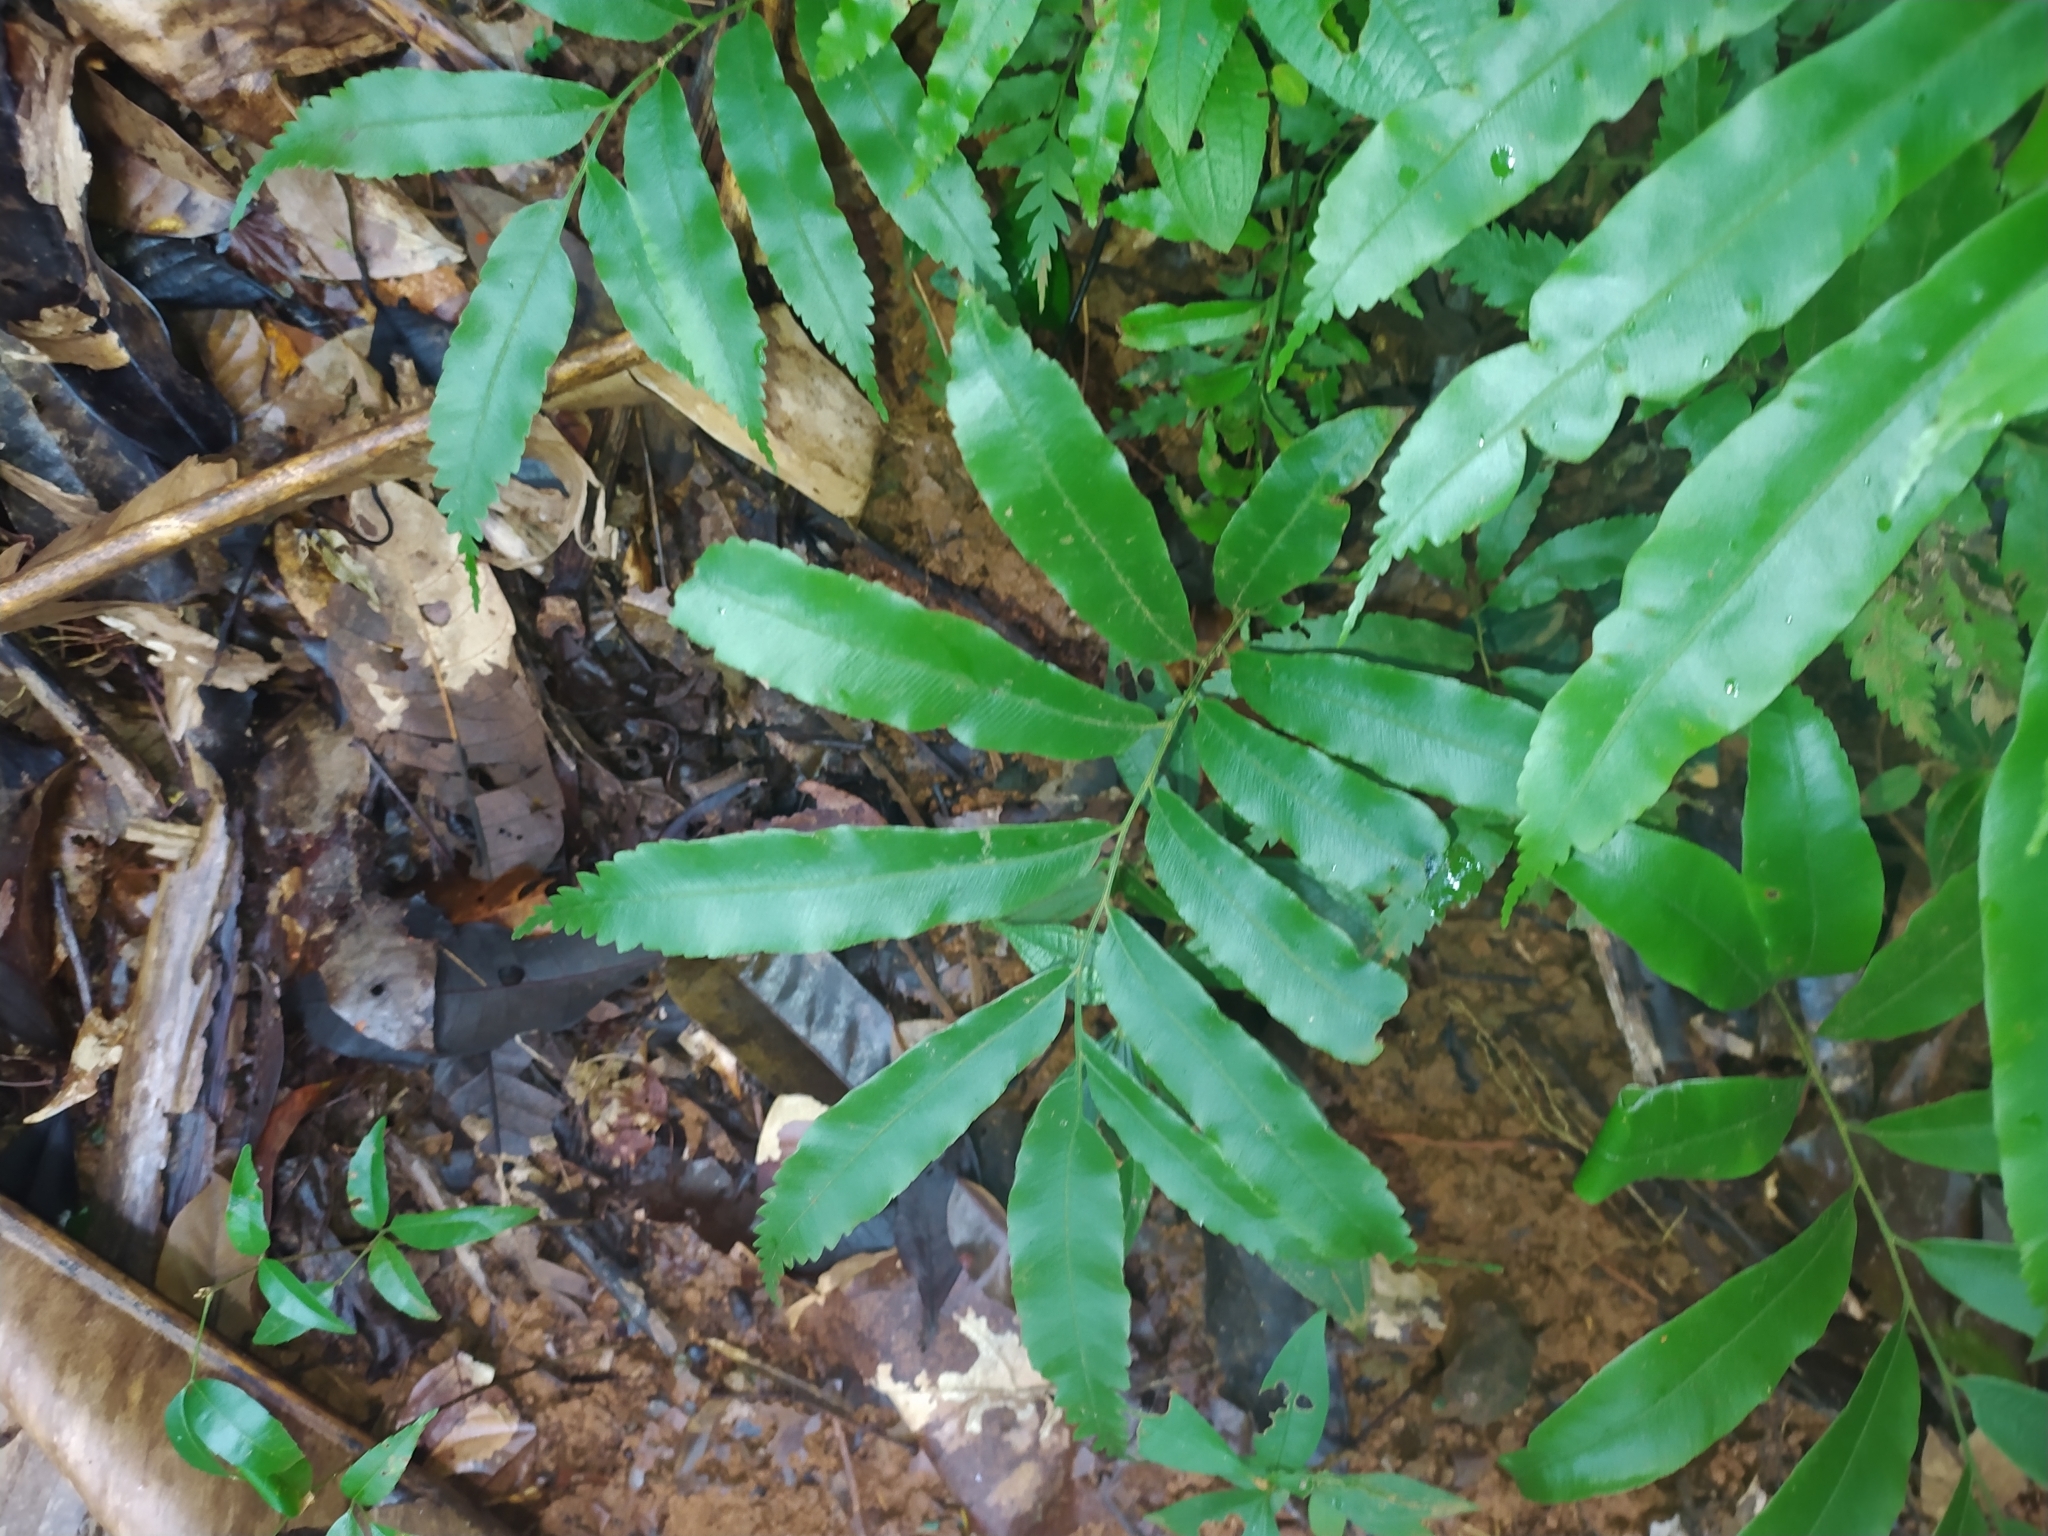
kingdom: Plantae
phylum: Tracheophyta
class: Polypodiopsida
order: Cyatheales
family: Metaxyaceae
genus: Metaxya
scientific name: Metaxya scalaris
